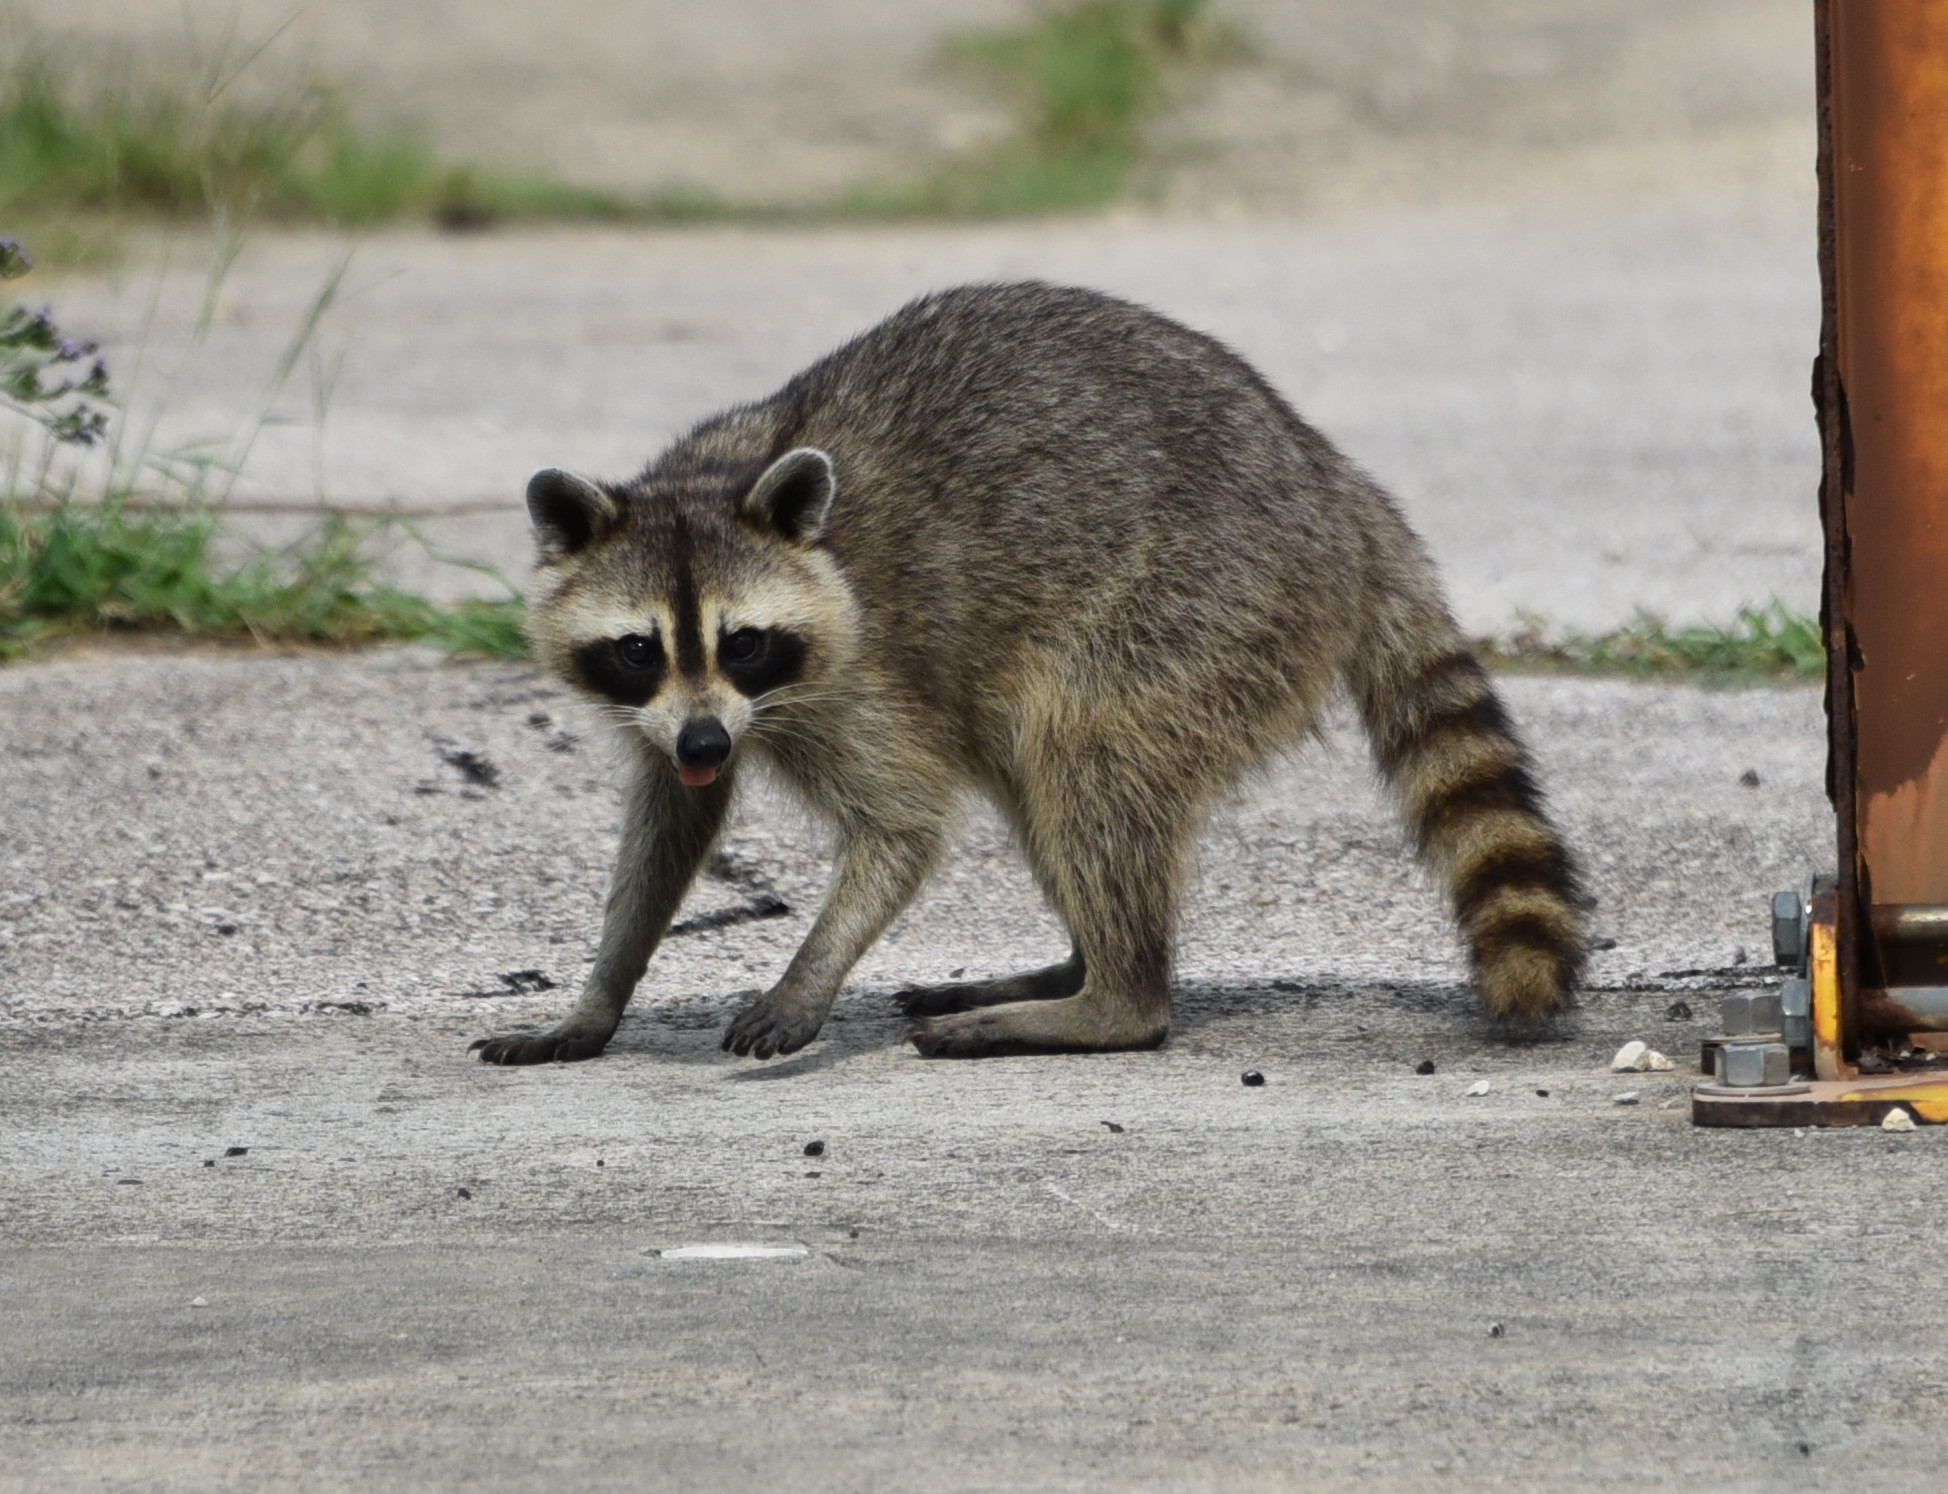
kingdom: Animalia
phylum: Chordata
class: Mammalia
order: Carnivora
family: Procyonidae
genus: Procyon
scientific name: Procyon lotor
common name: Raccoon
